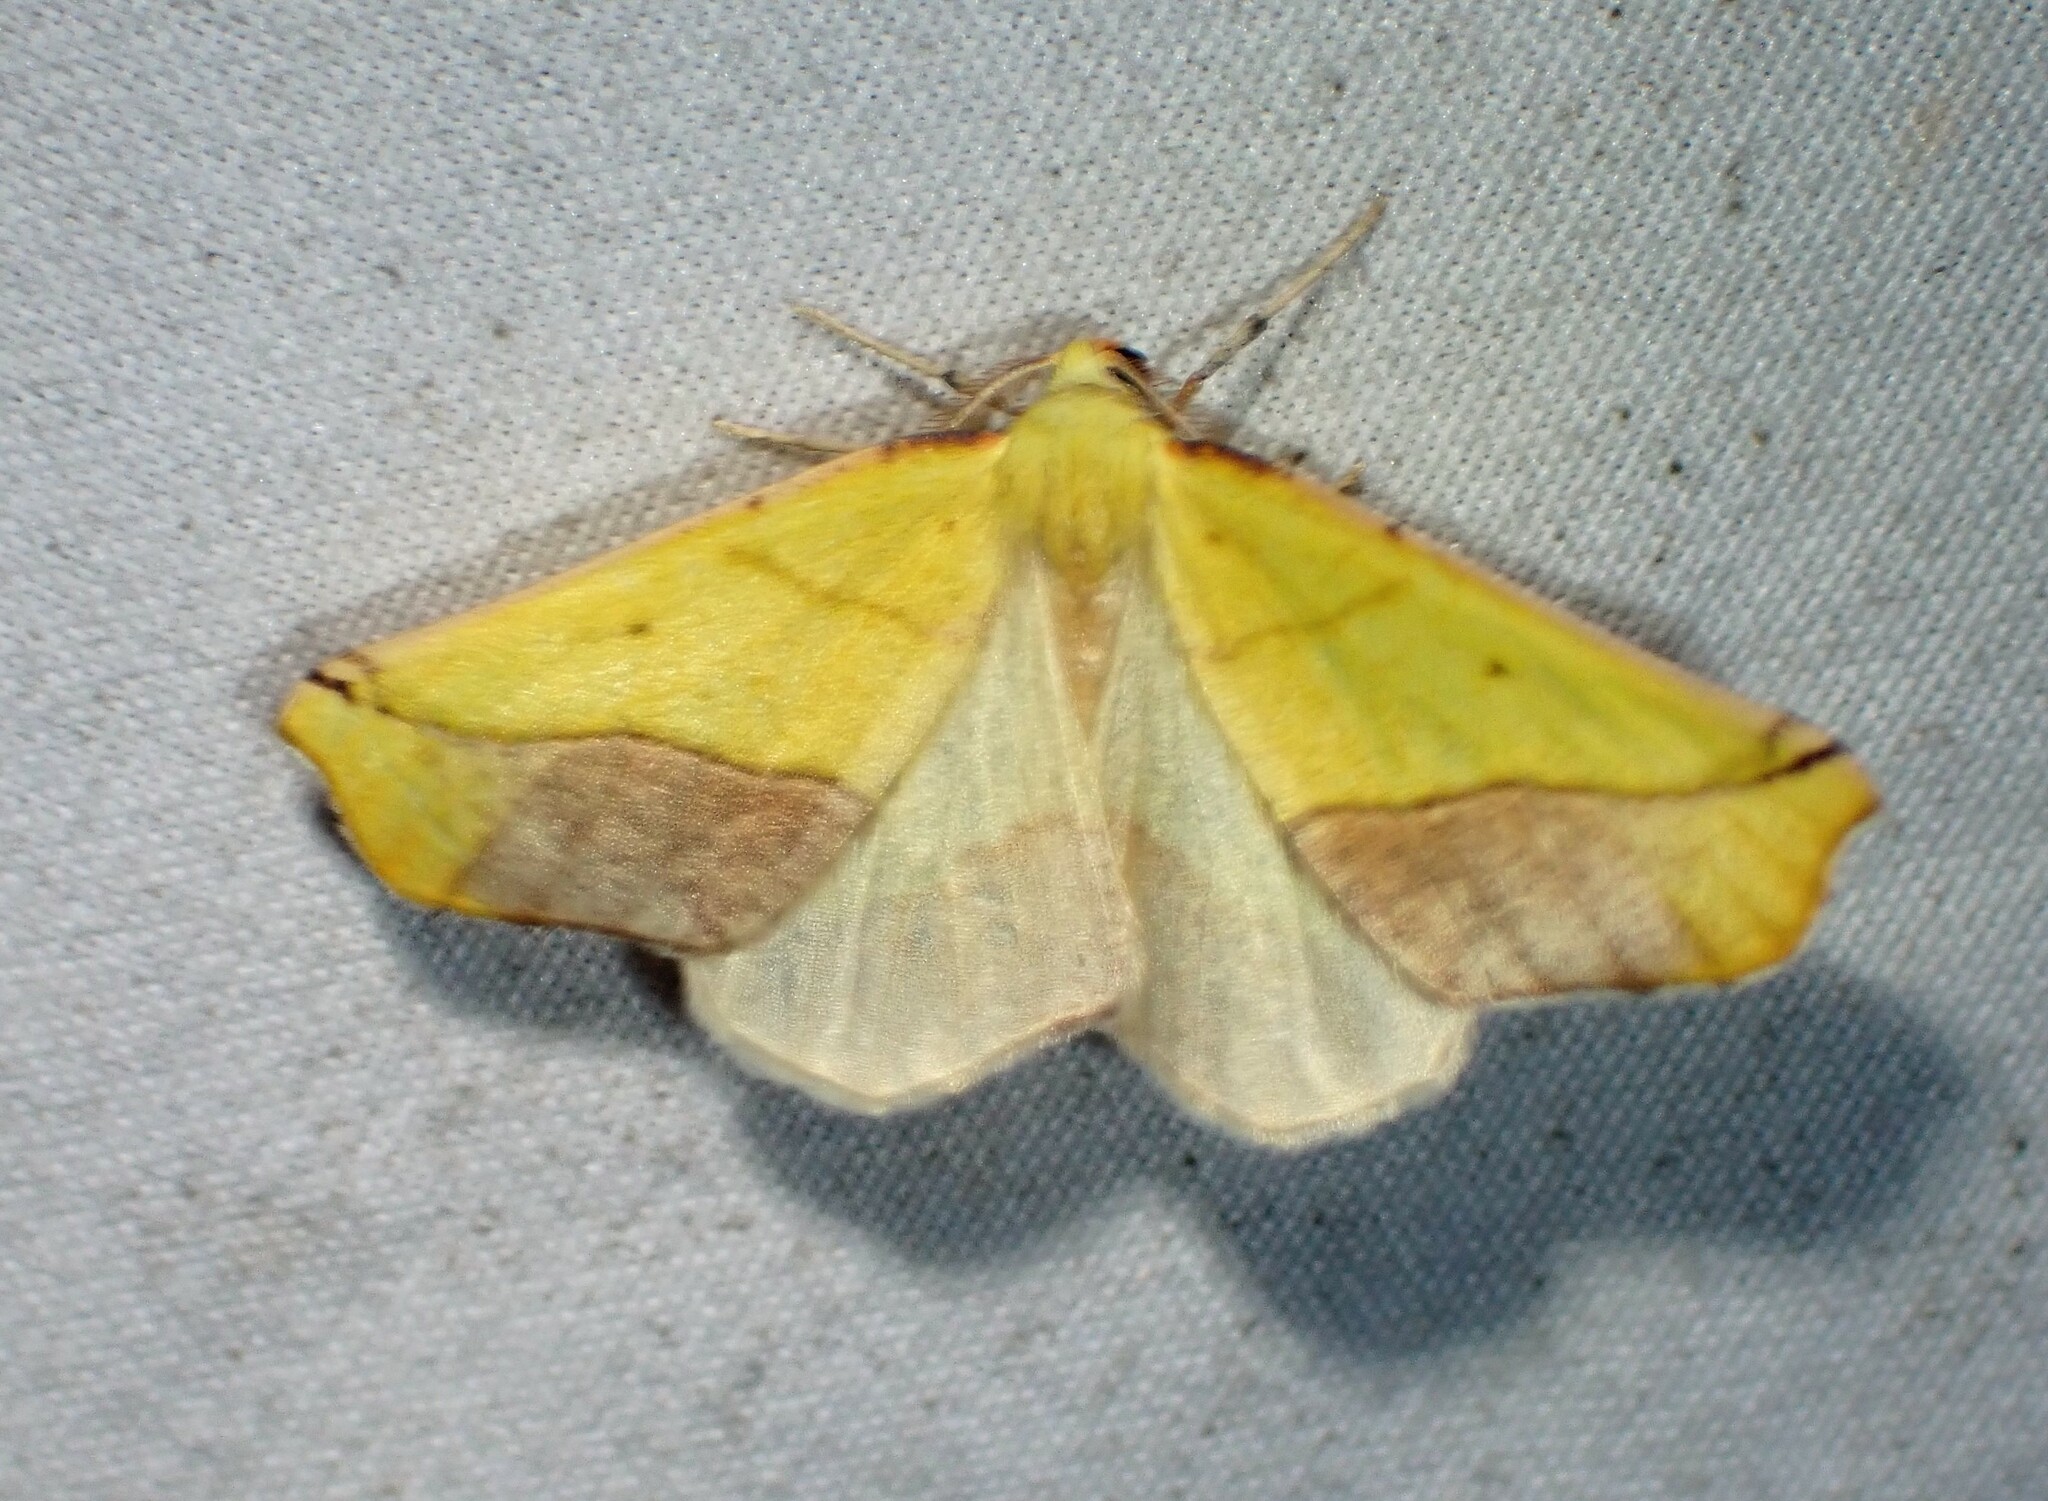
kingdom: Animalia
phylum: Arthropoda
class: Insecta
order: Lepidoptera
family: Geometridae
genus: Sicya
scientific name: Sicya macularia
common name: Sharp-lined yellow
